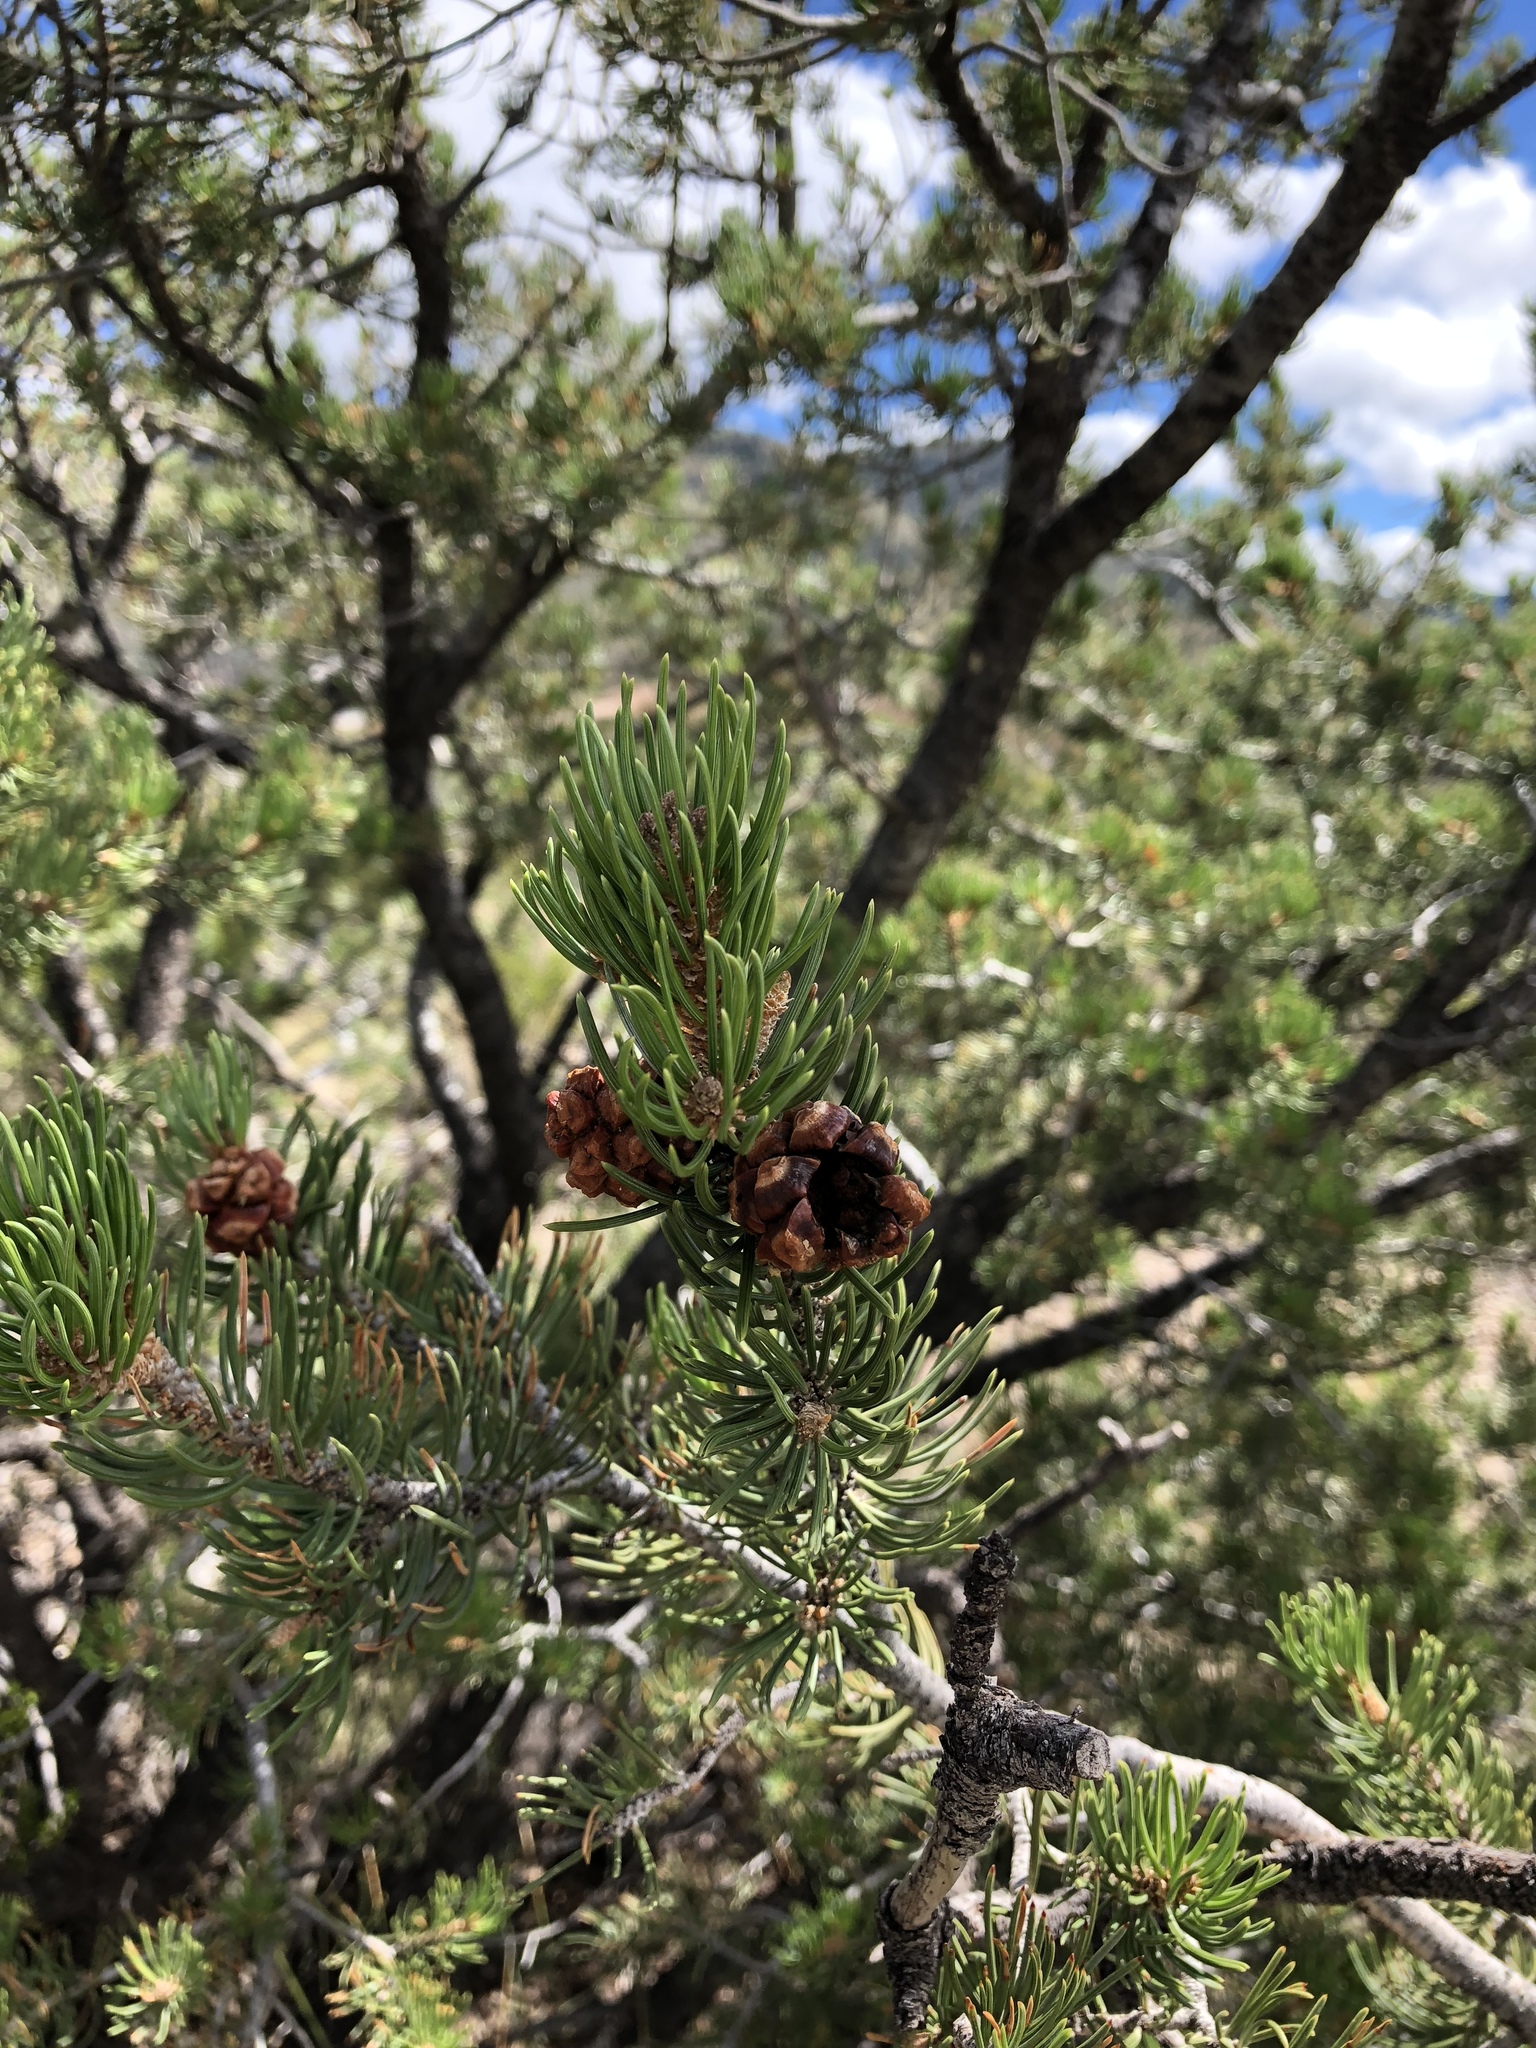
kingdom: Plantae
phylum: Tracheophyta
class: Pinopsida
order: Pinales
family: Pinaceae
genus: Pinus
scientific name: Pinus edulis
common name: Colorado pinyon
